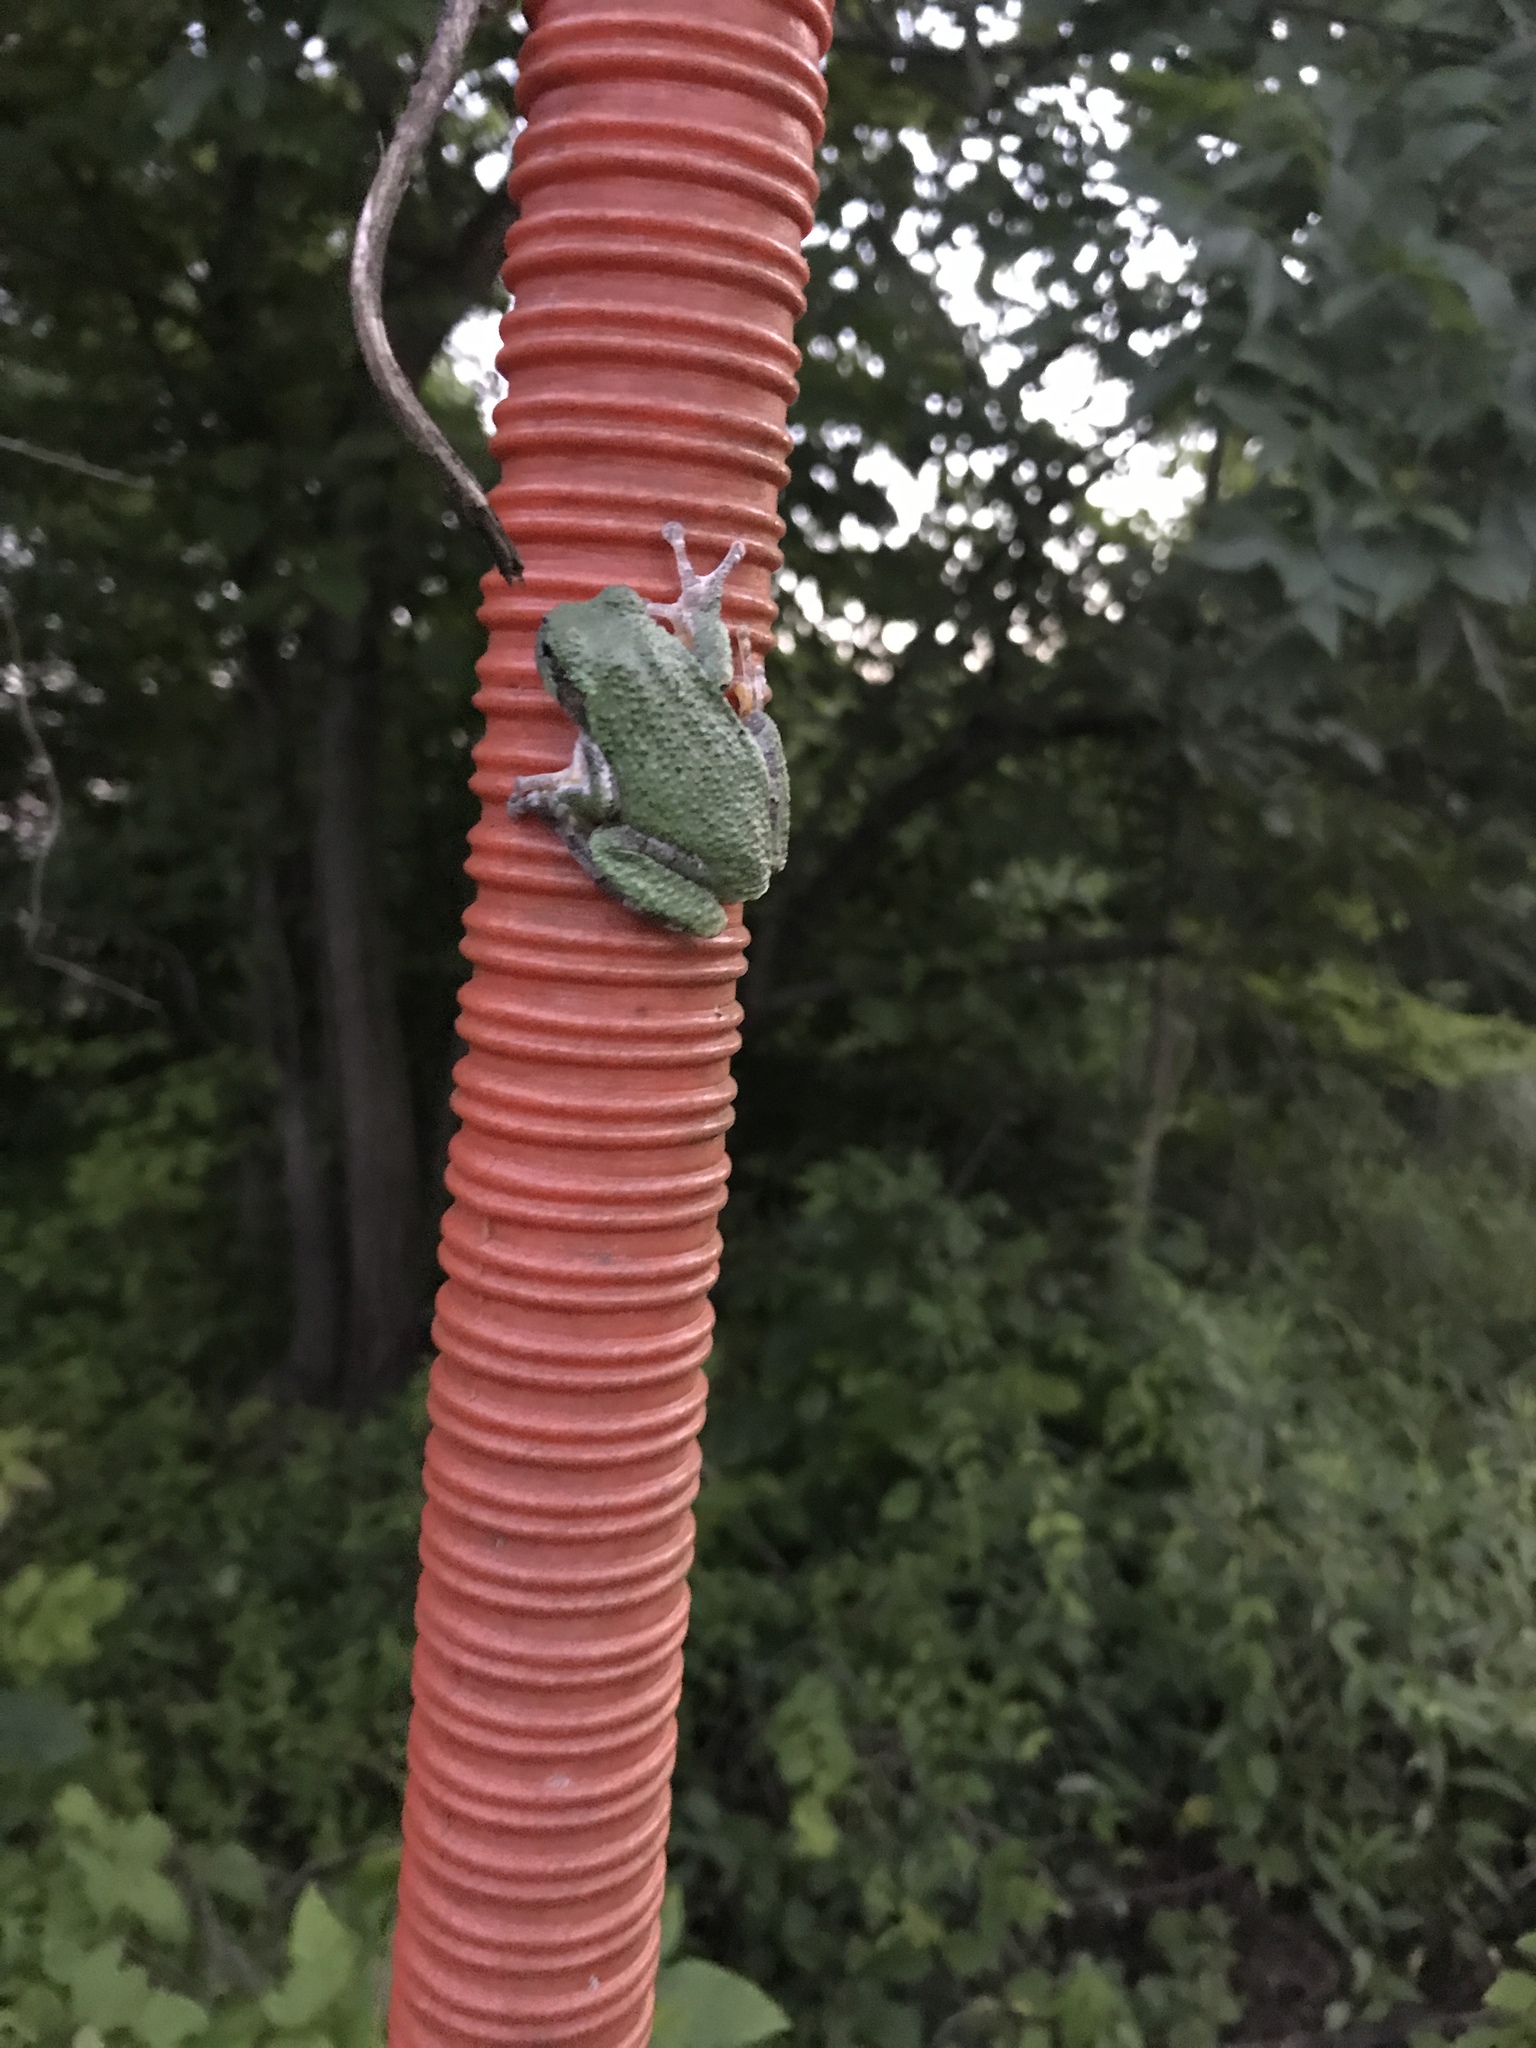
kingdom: Animalia
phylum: Chordata
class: Amphibia
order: Anura
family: Hylidae
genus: Dryophytes
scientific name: Dryophytes versicolor
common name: Gray treefrog
